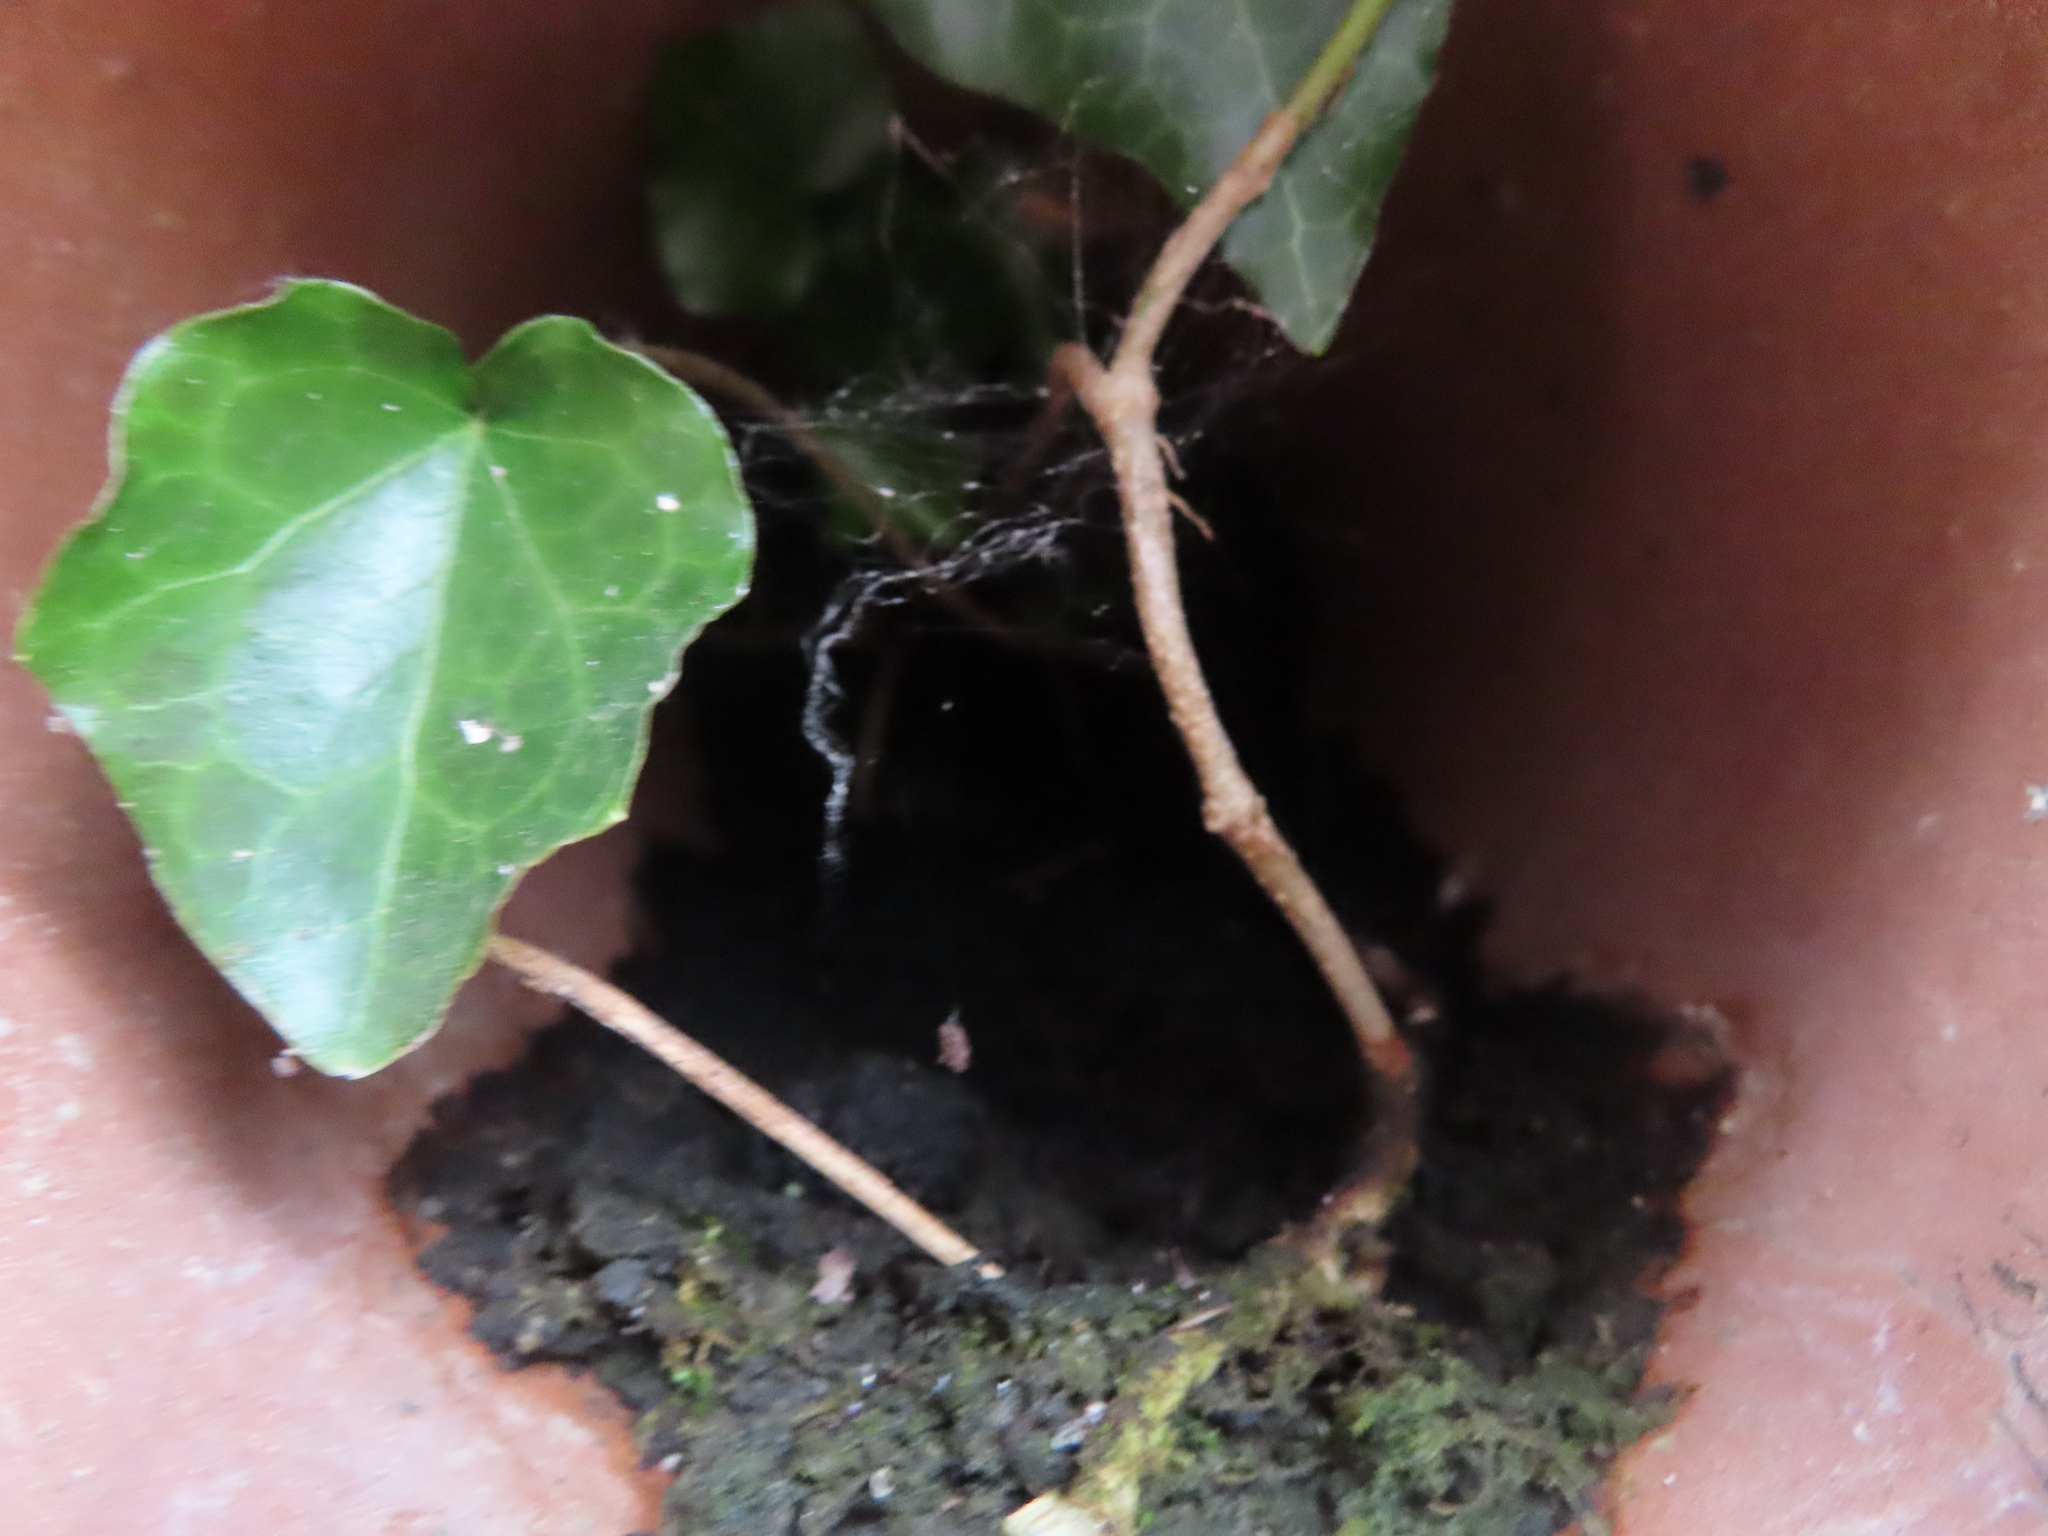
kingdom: Plantae
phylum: Tracheophyta
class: Magnoliopsida
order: Apiales
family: Araliaceae
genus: Hedera
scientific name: Hedera helix
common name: Ivy
